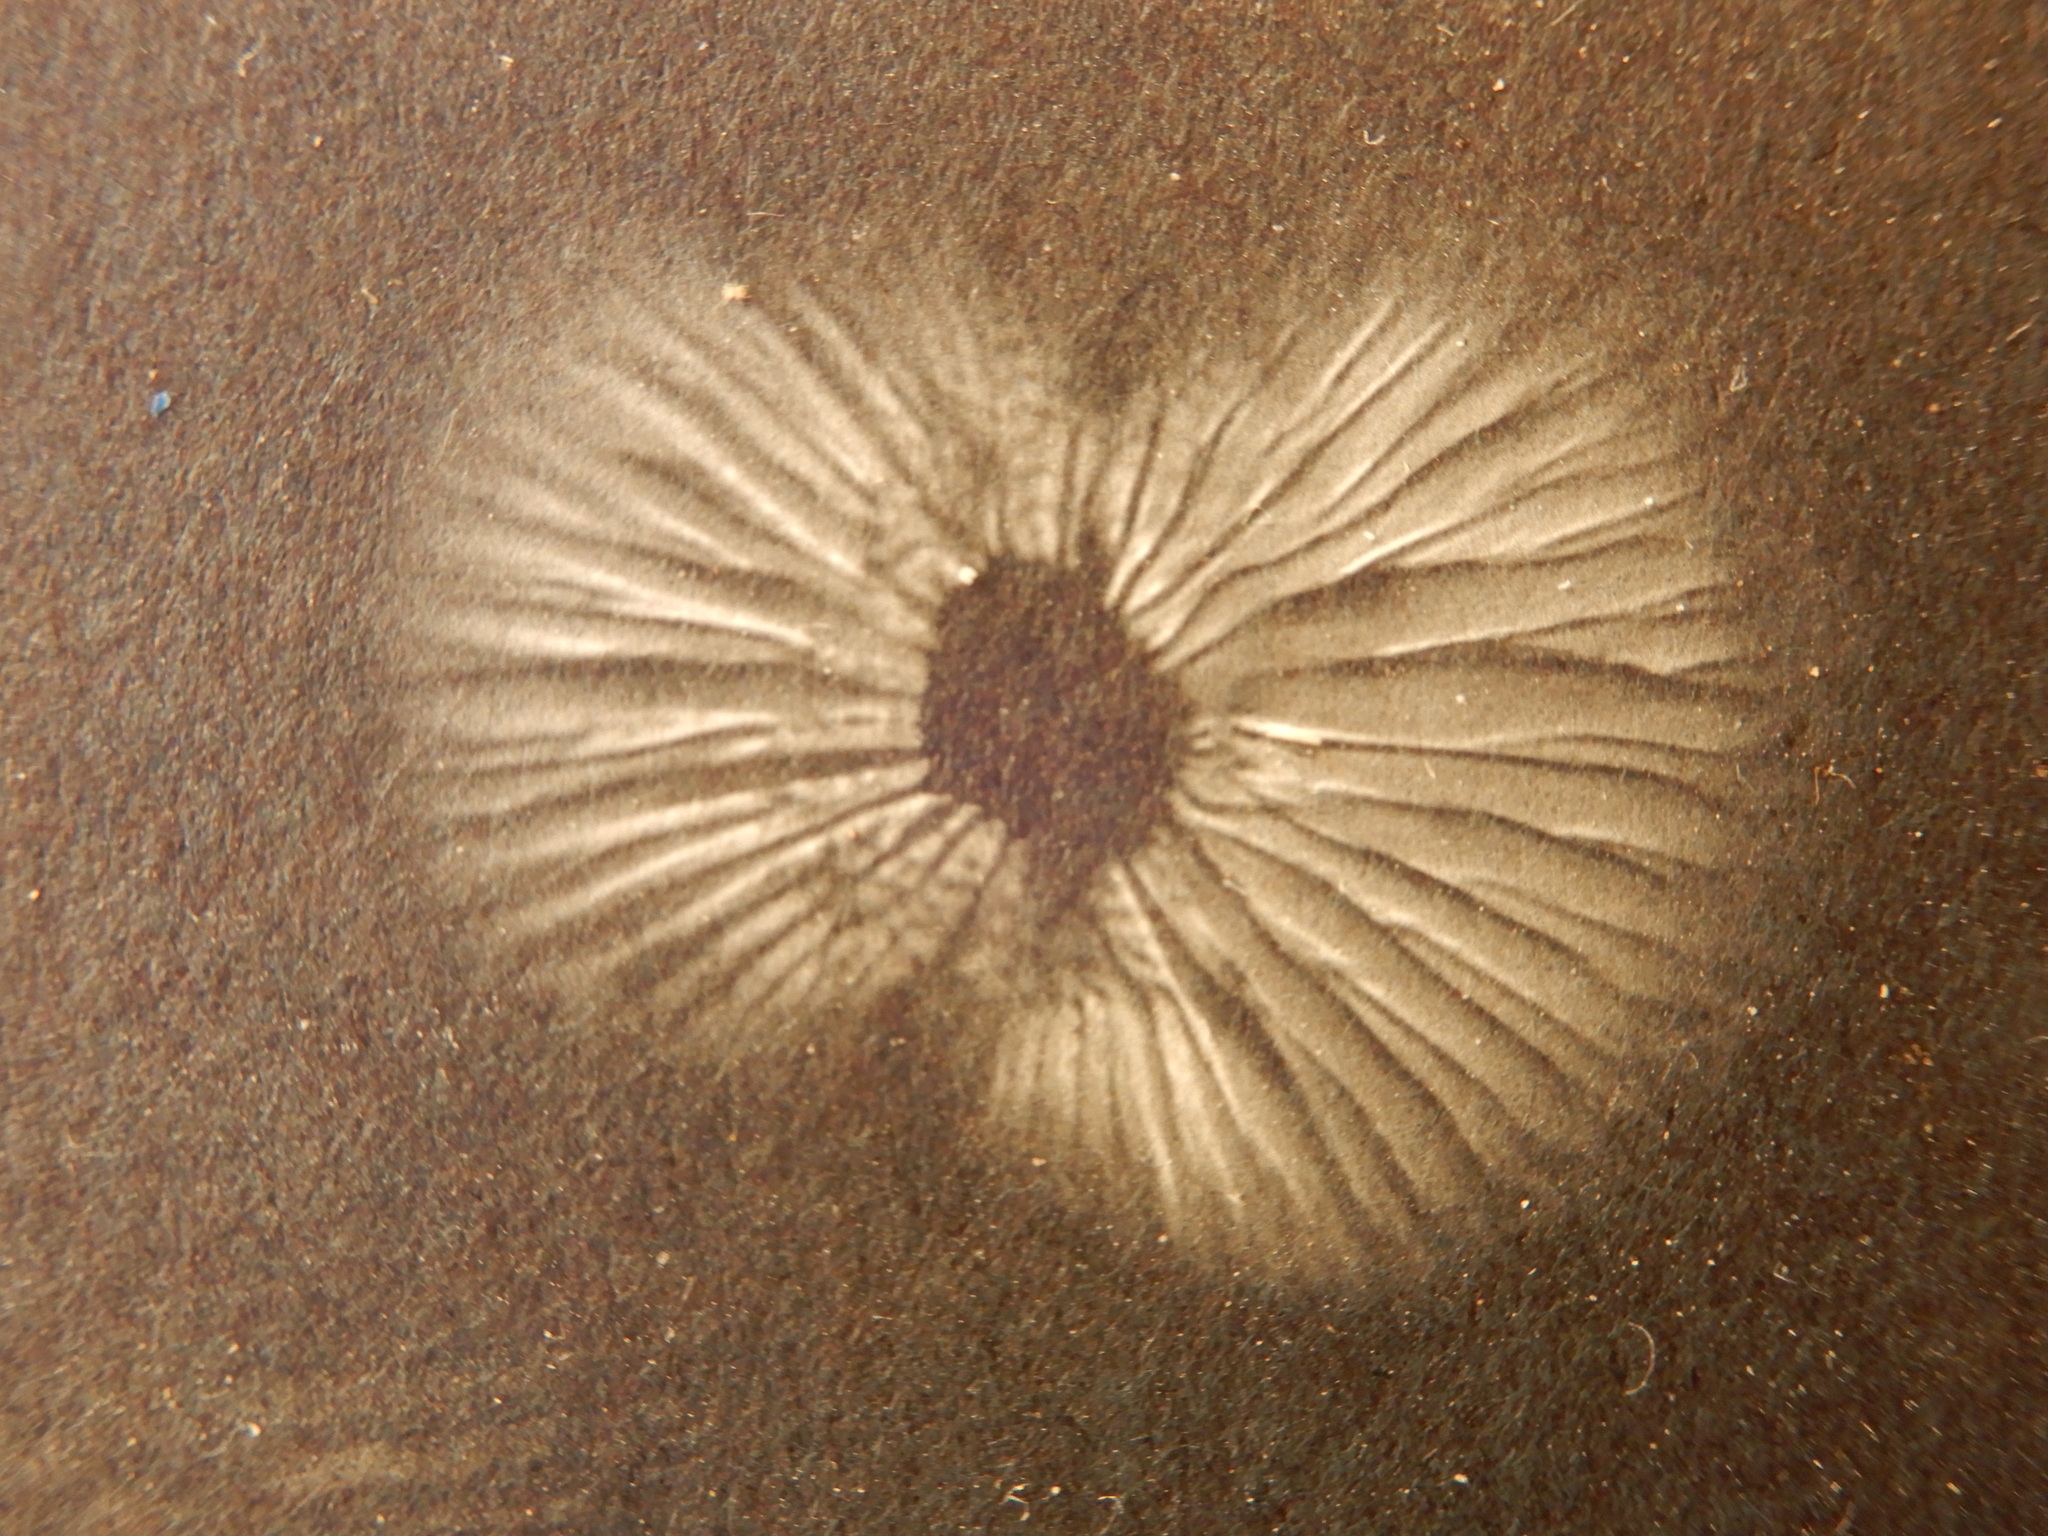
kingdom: Fungi
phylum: Basidiomycota
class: Agaricomycetes
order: Agaricales
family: Mycenaceae
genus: Heimiomyces
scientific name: Heimiomyces atrofulvus
